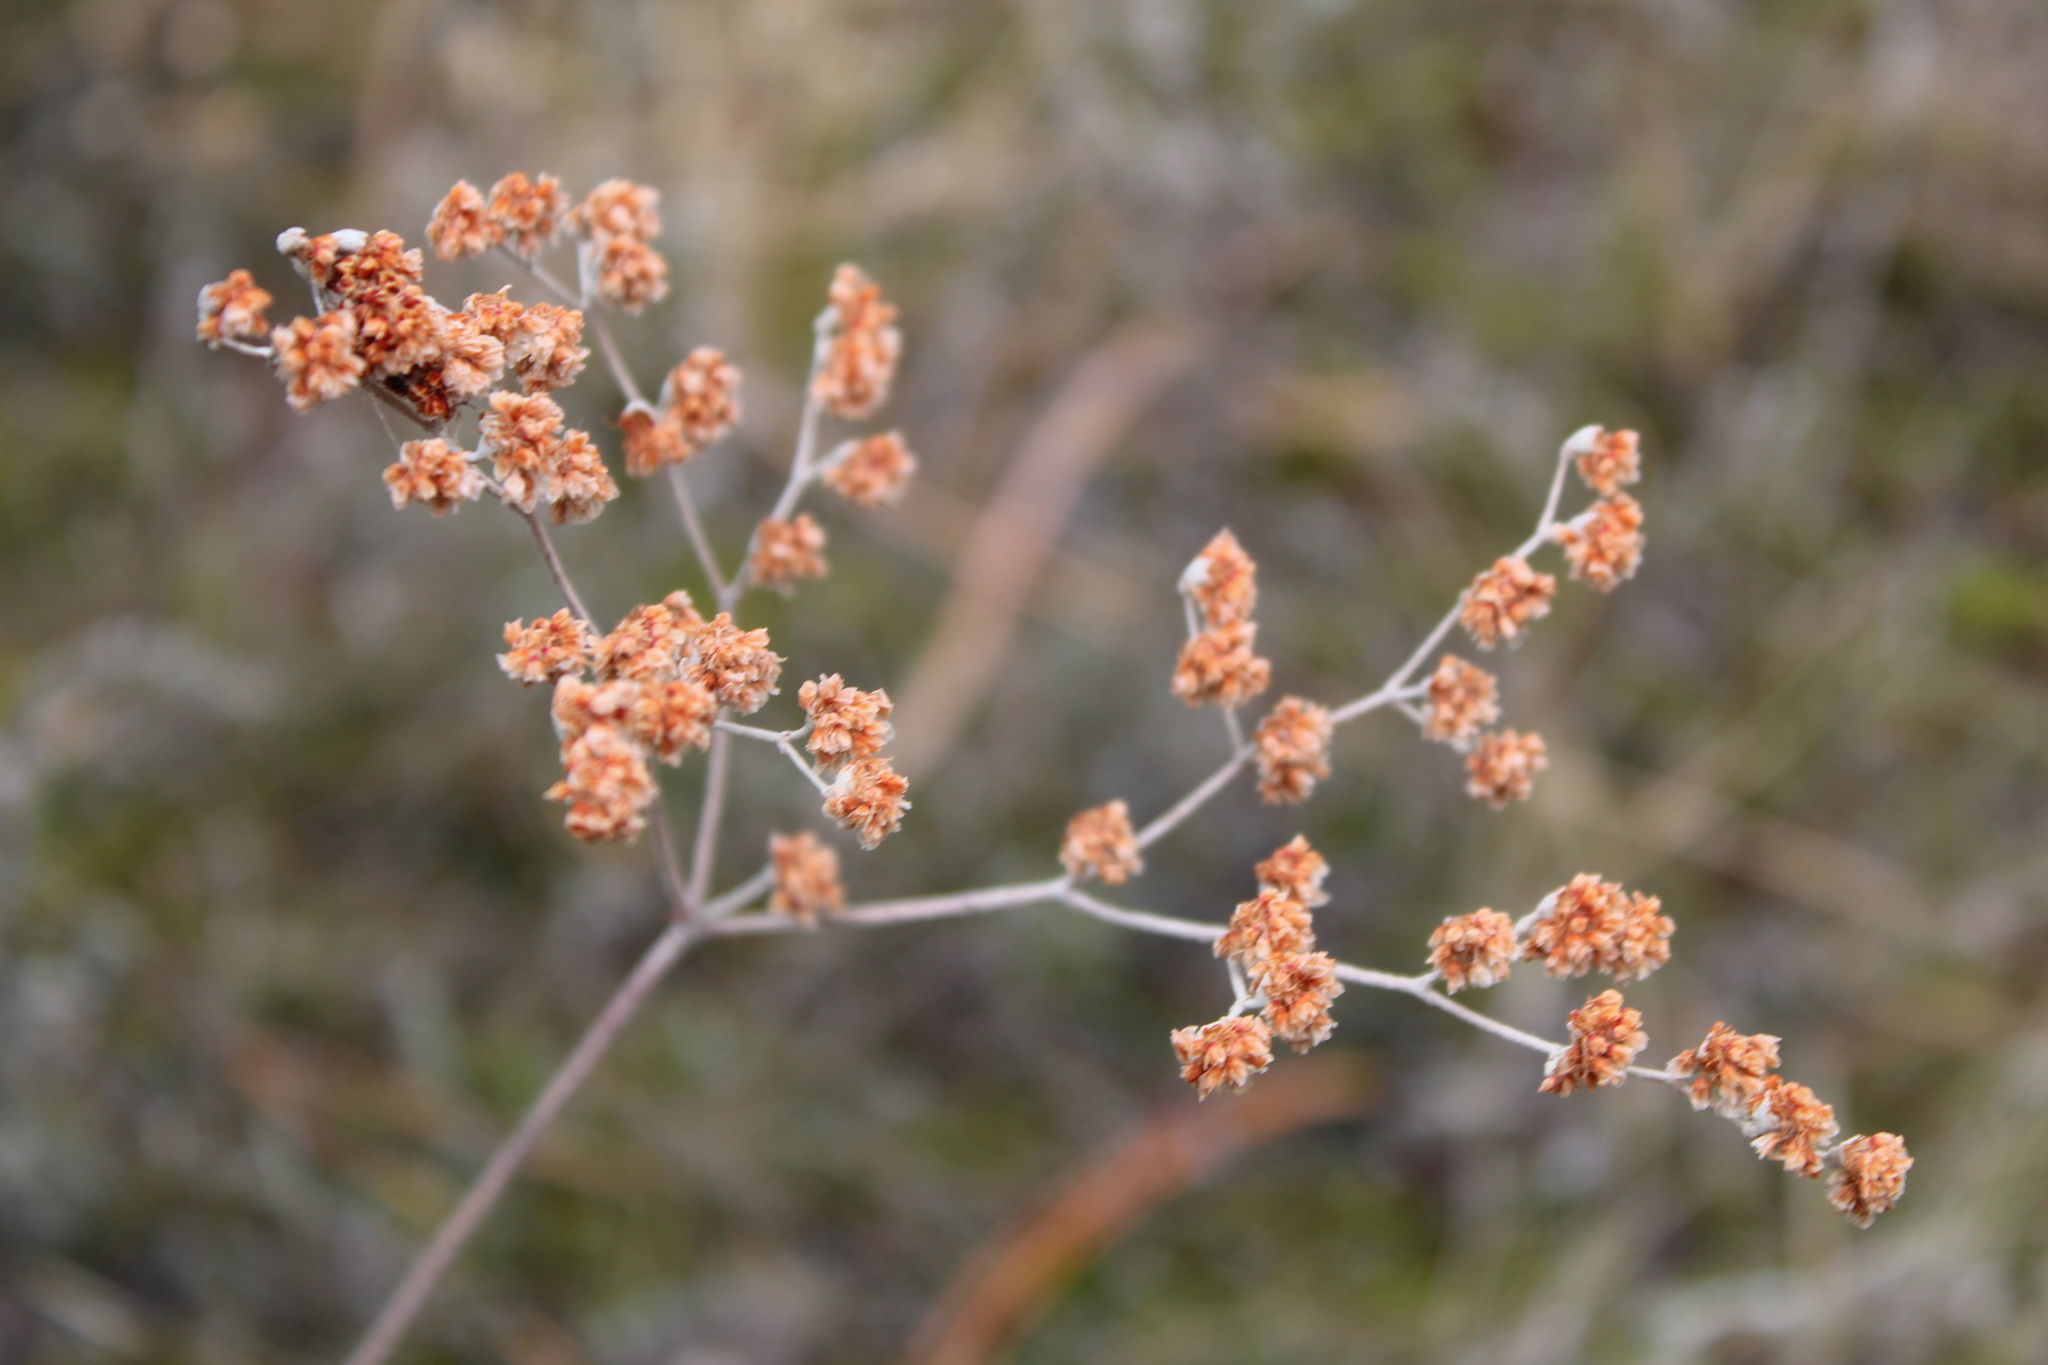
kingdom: Plantae
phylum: Tracheophyta
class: Magnoliopsida
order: Caryophyllales
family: Polygonaceae
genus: Eriogonum
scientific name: Eriogonum annuum
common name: Annual wild buckwheat
